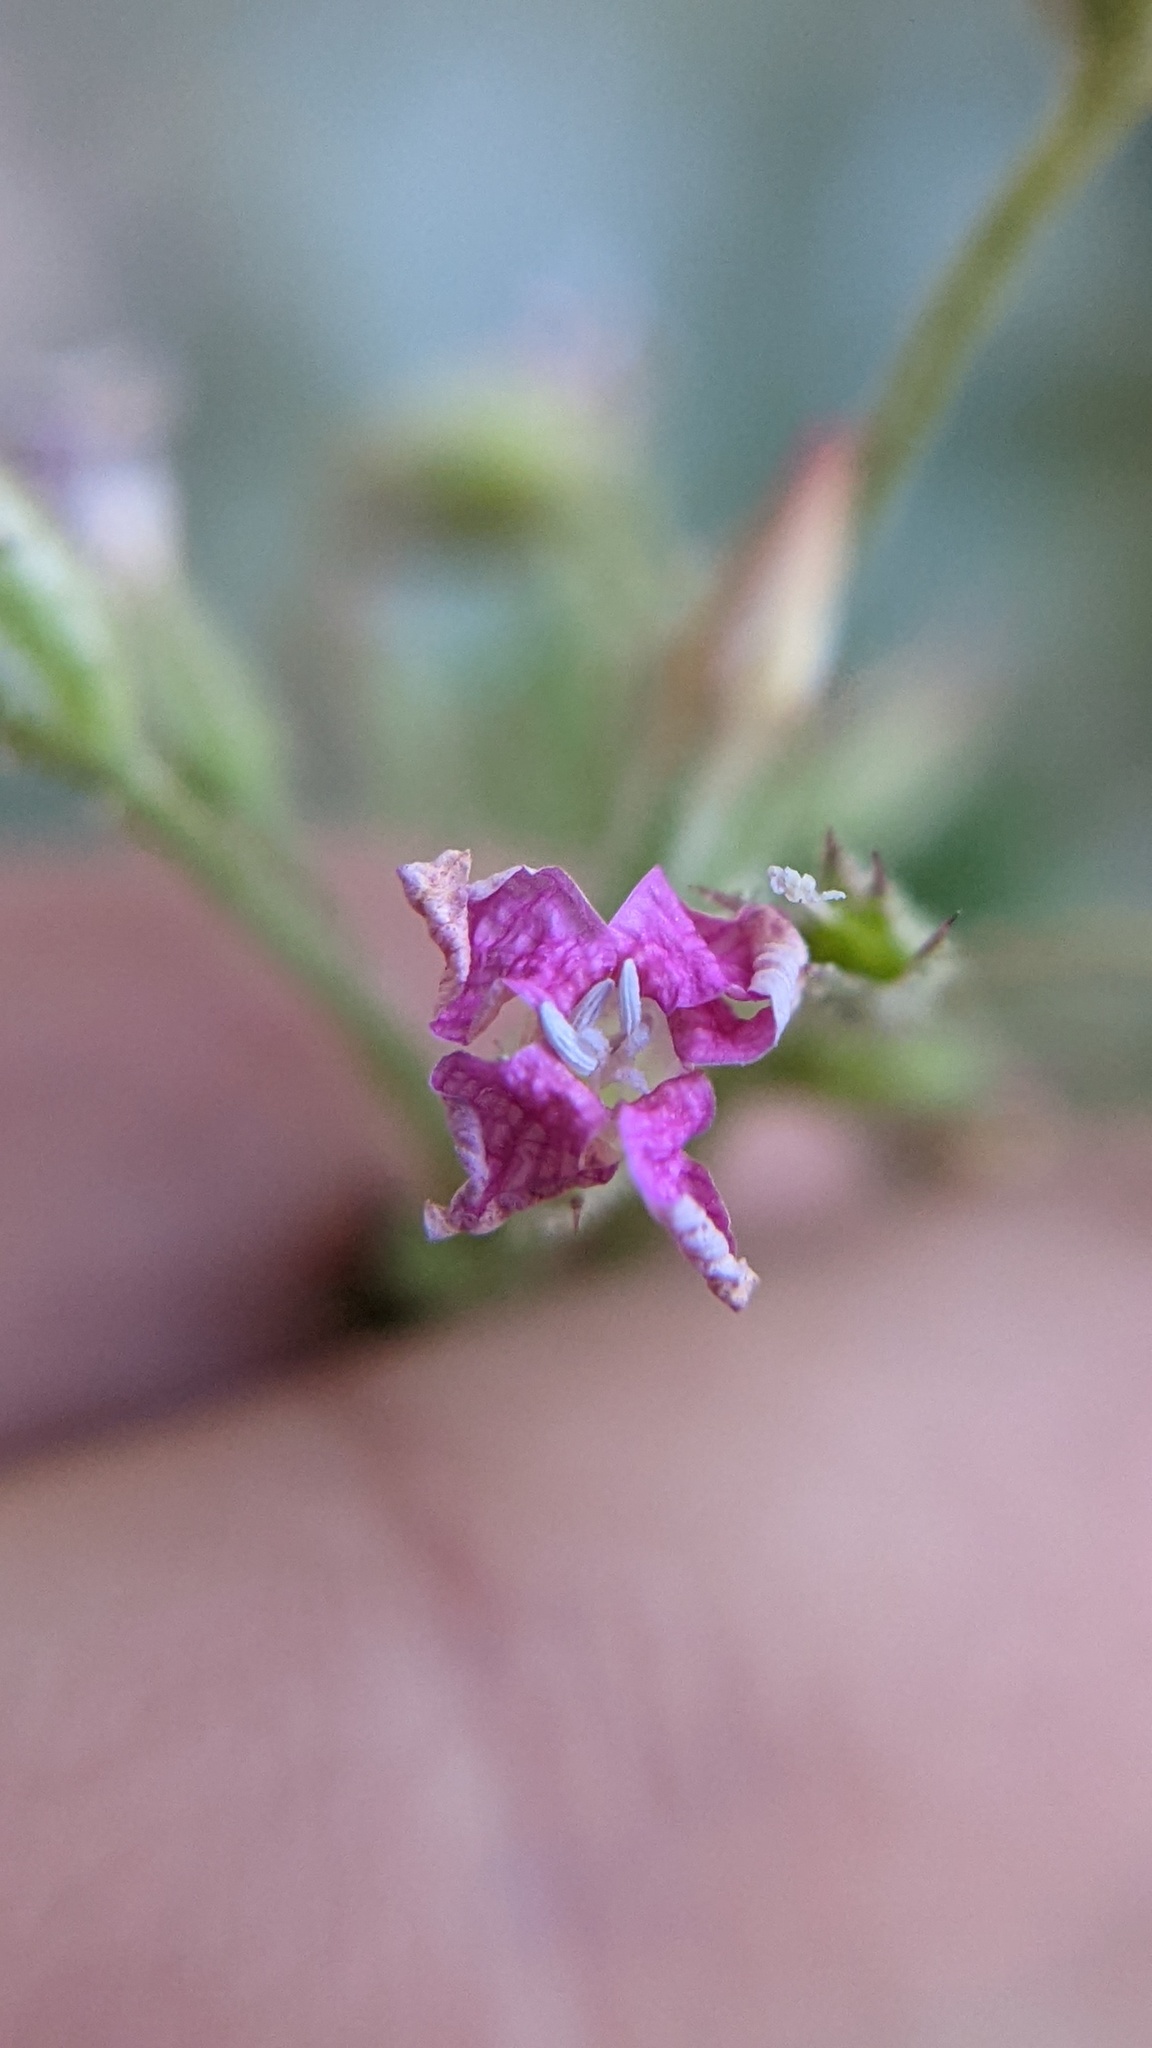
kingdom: Plantae
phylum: Tracheophyta
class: Magnoliopsida
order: Ericales
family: Polemoniaceae
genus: Aliciella
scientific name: Aliciella latifolia
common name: Broad-leaf gilia
